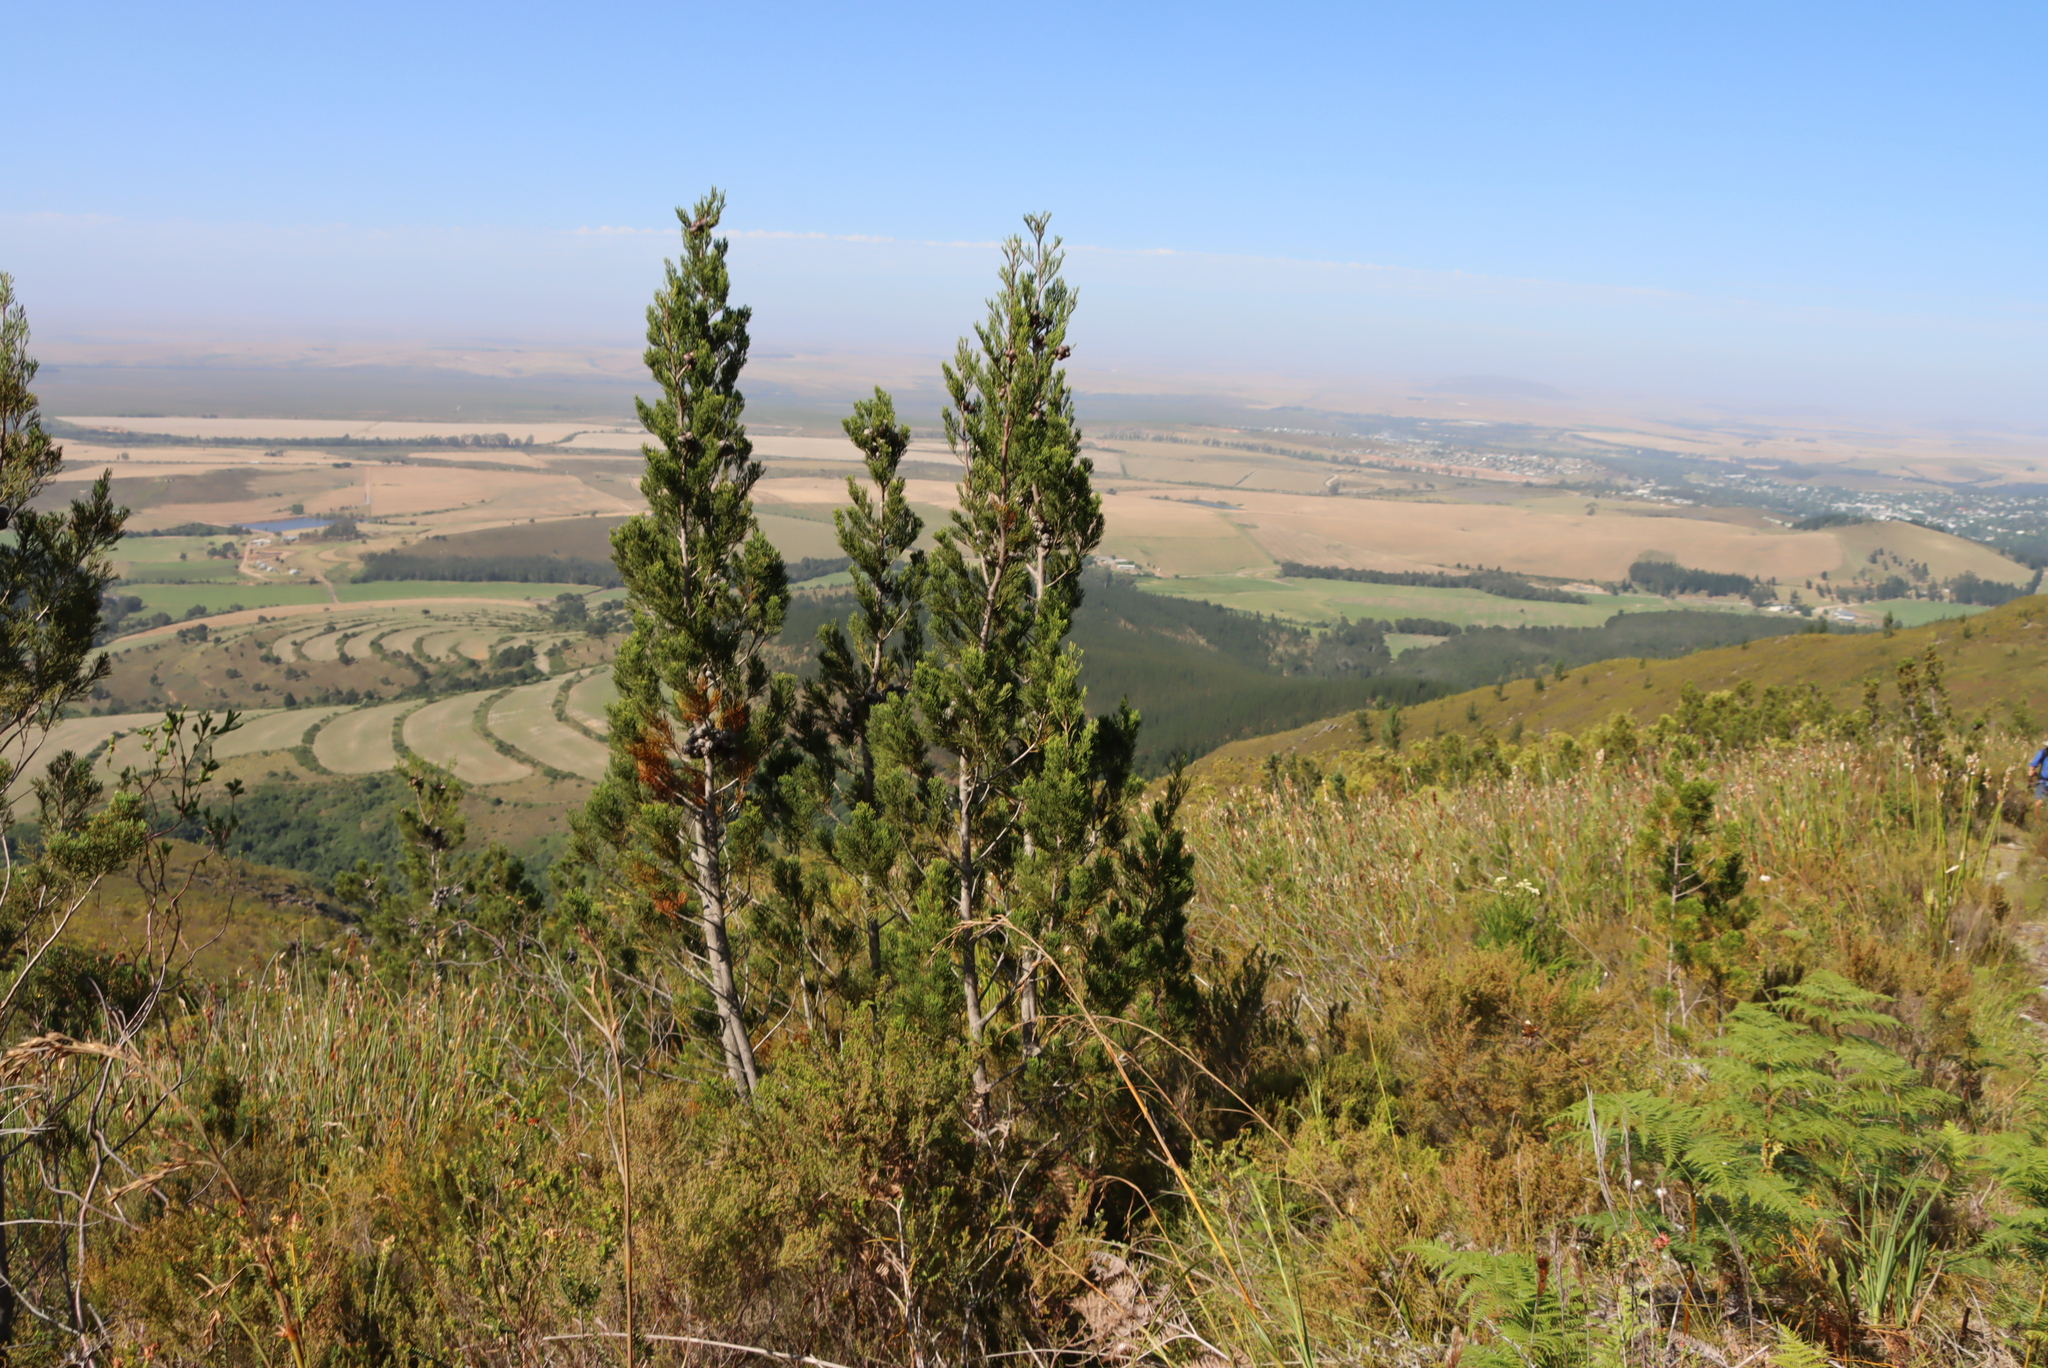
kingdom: Plantae
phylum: Tracheophyta
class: Pinopsida
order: Pinales
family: Cupressaceae
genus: Widdringtonia
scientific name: Widdringtonia nodiflora
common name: Cape cypress
